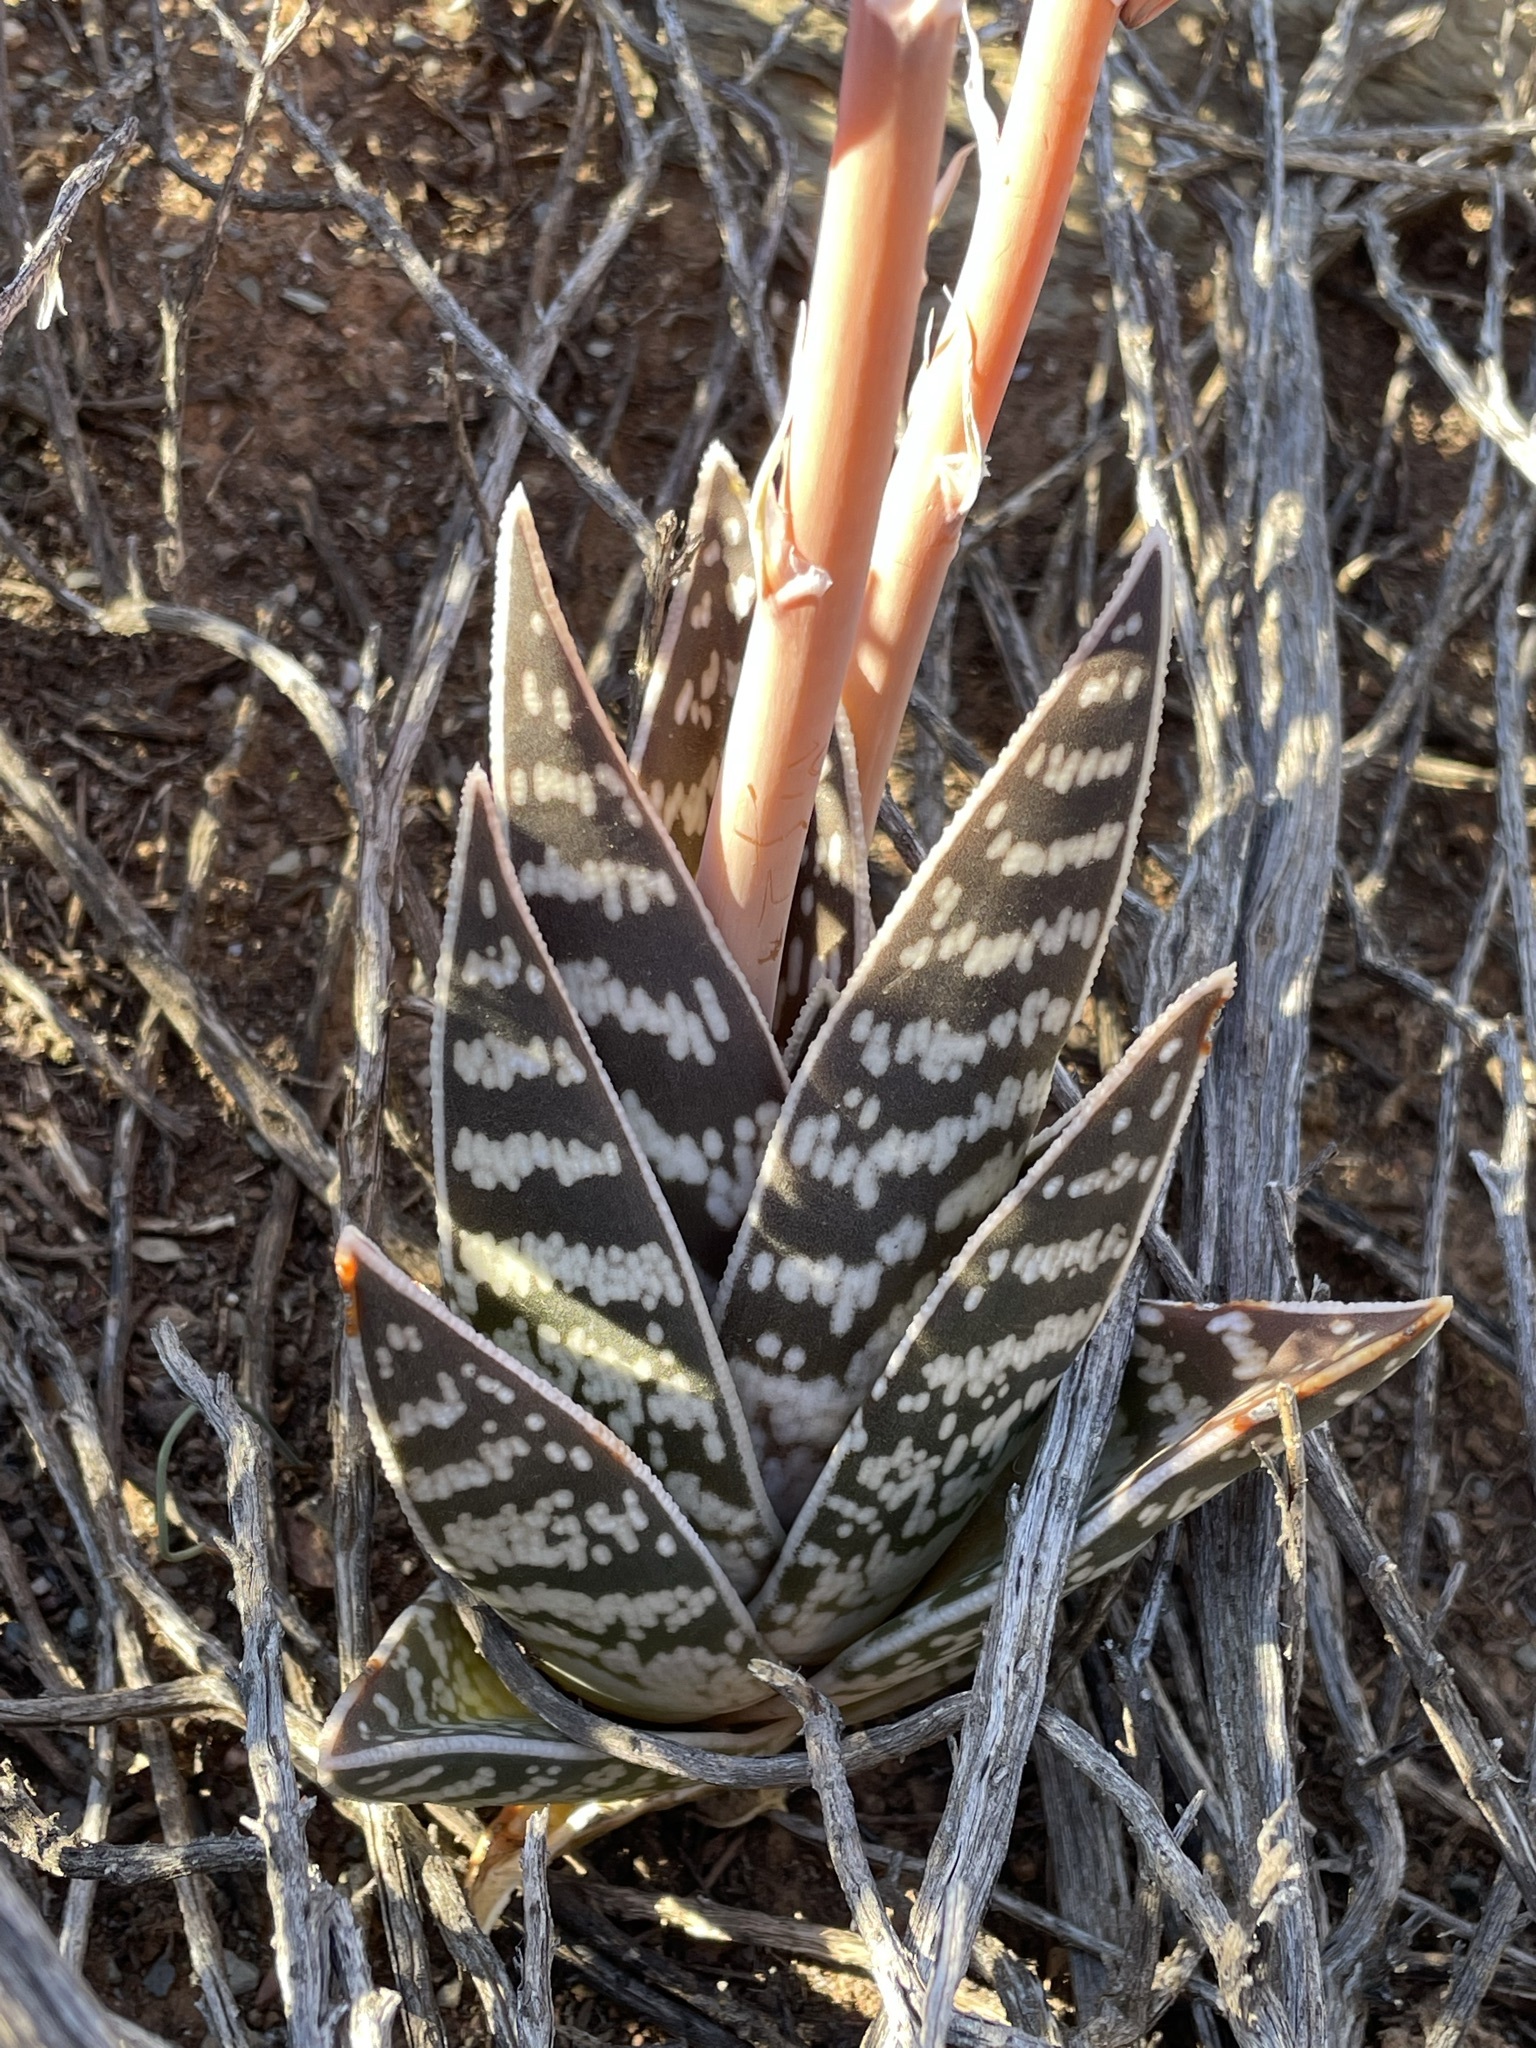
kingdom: Plantae
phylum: Tracheophyta
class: Liliopsida
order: Asparagales
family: Asphodelaceae
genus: Gonialoe
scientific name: Gonialoe variegata
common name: Aloe variegata
